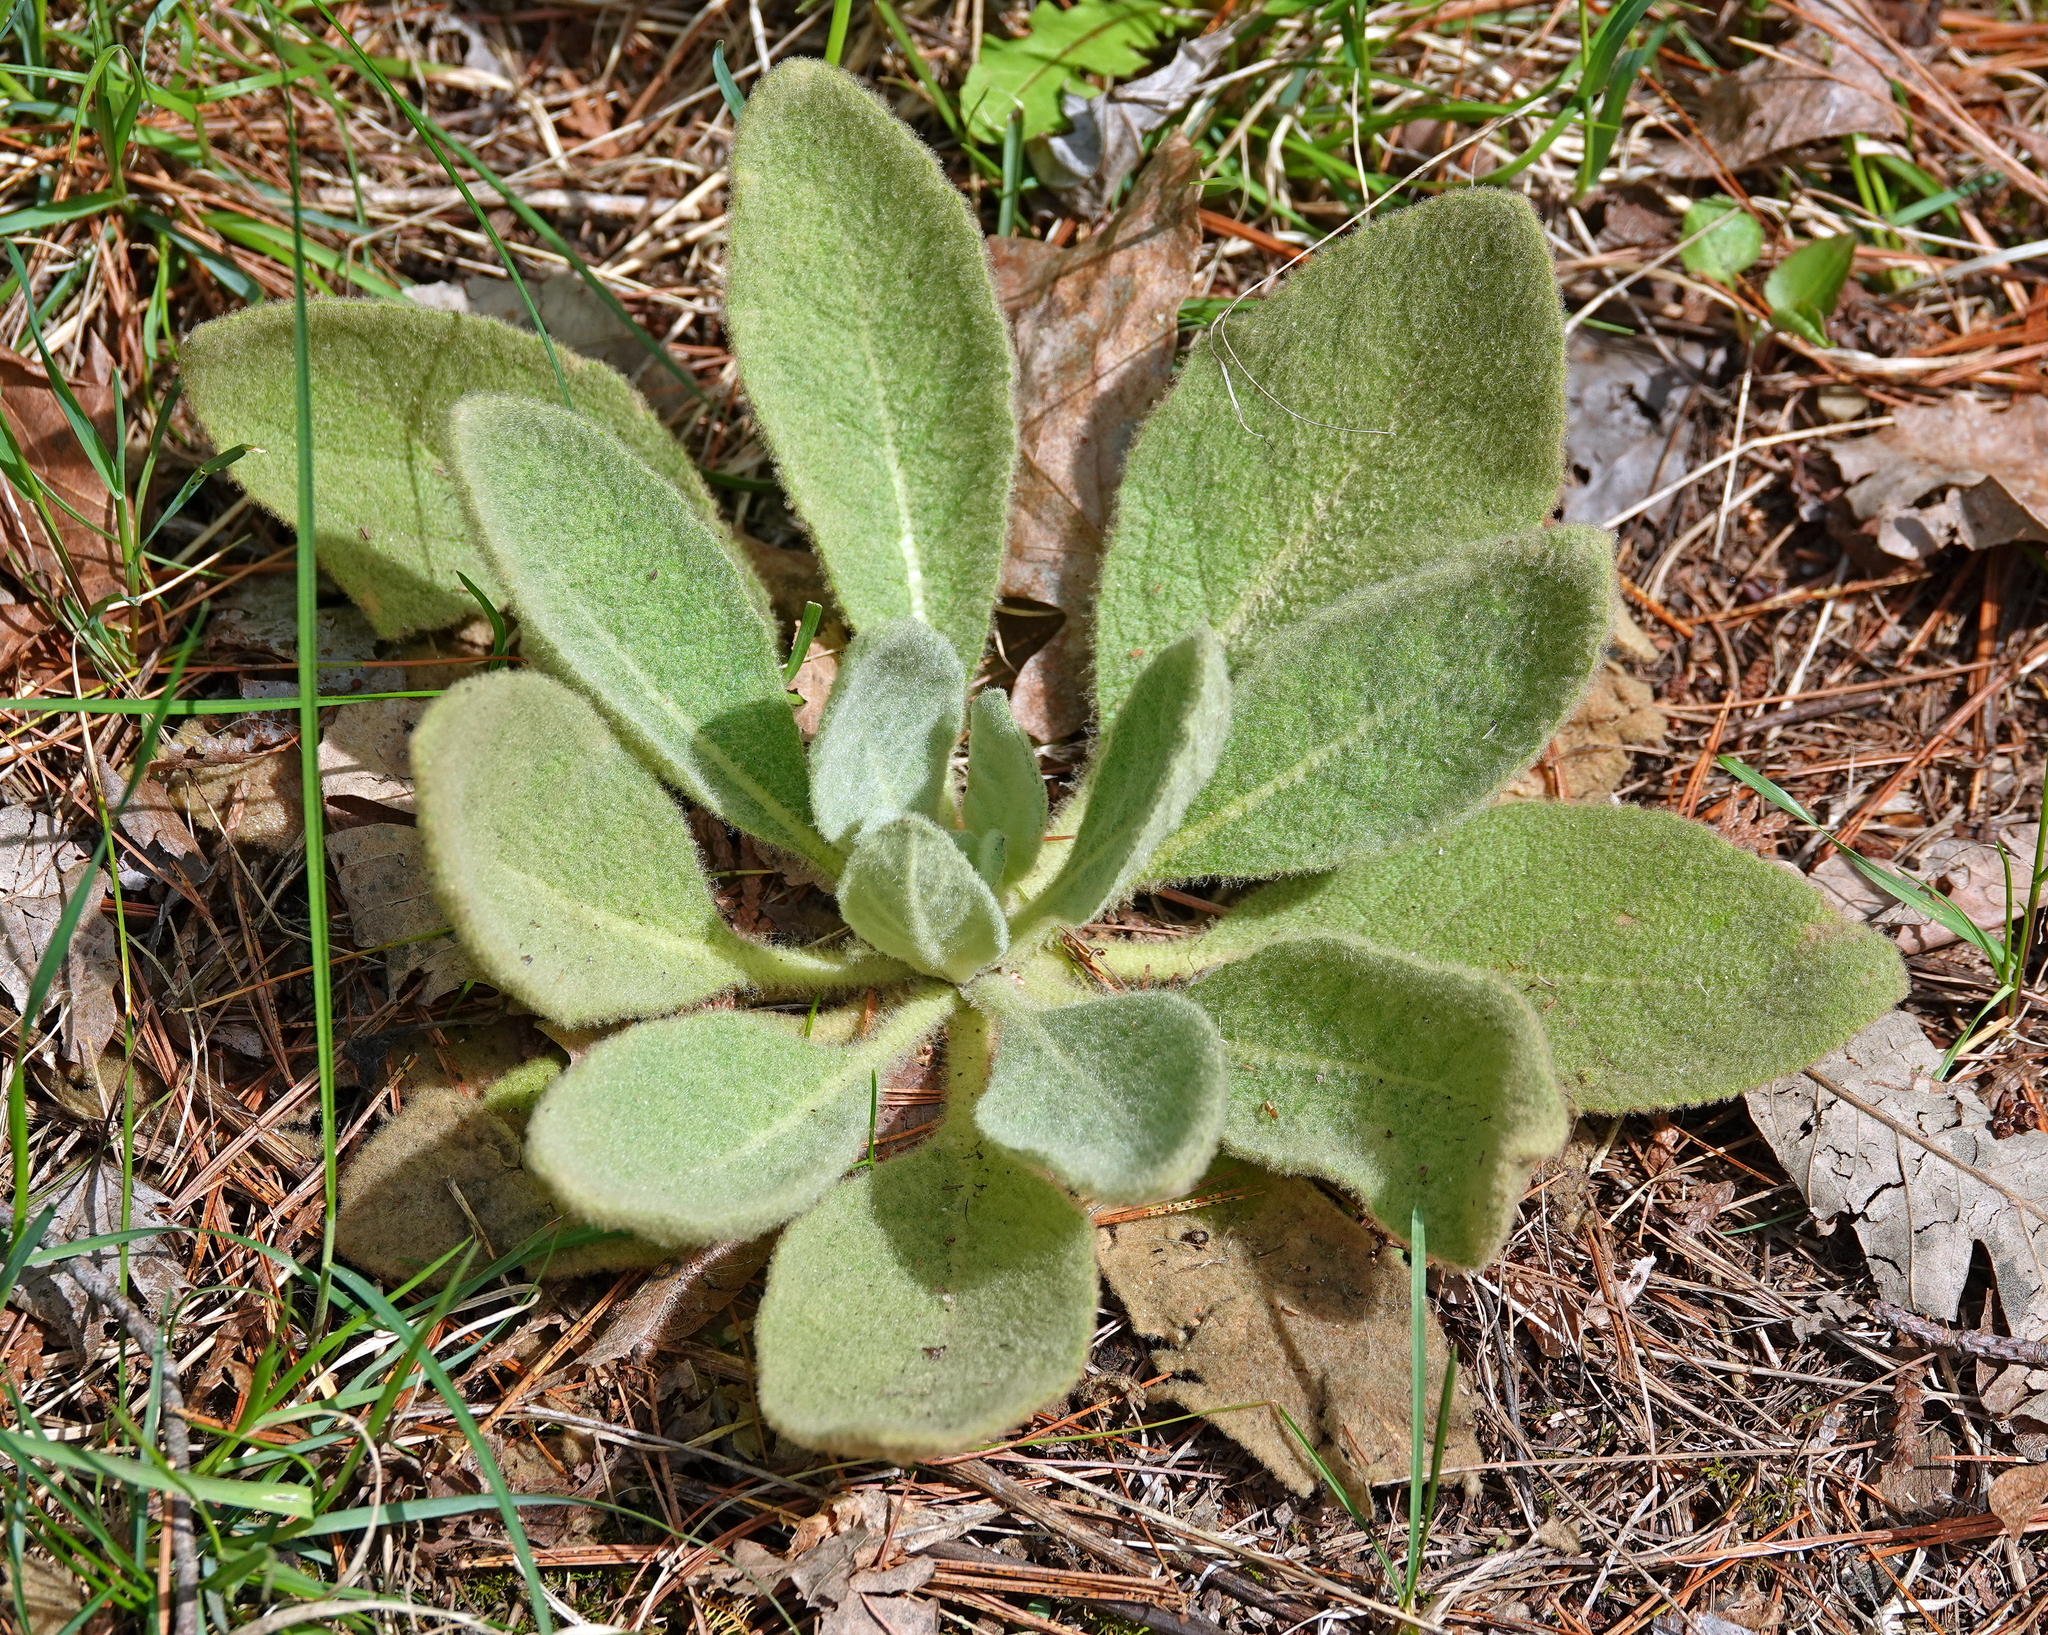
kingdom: Plantae
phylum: Tracheophyta
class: Magnoliopsida
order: Lamiales
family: Scrophulariaceae
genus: Verbascum
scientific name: Verbascum thapsus
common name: Common mullein
